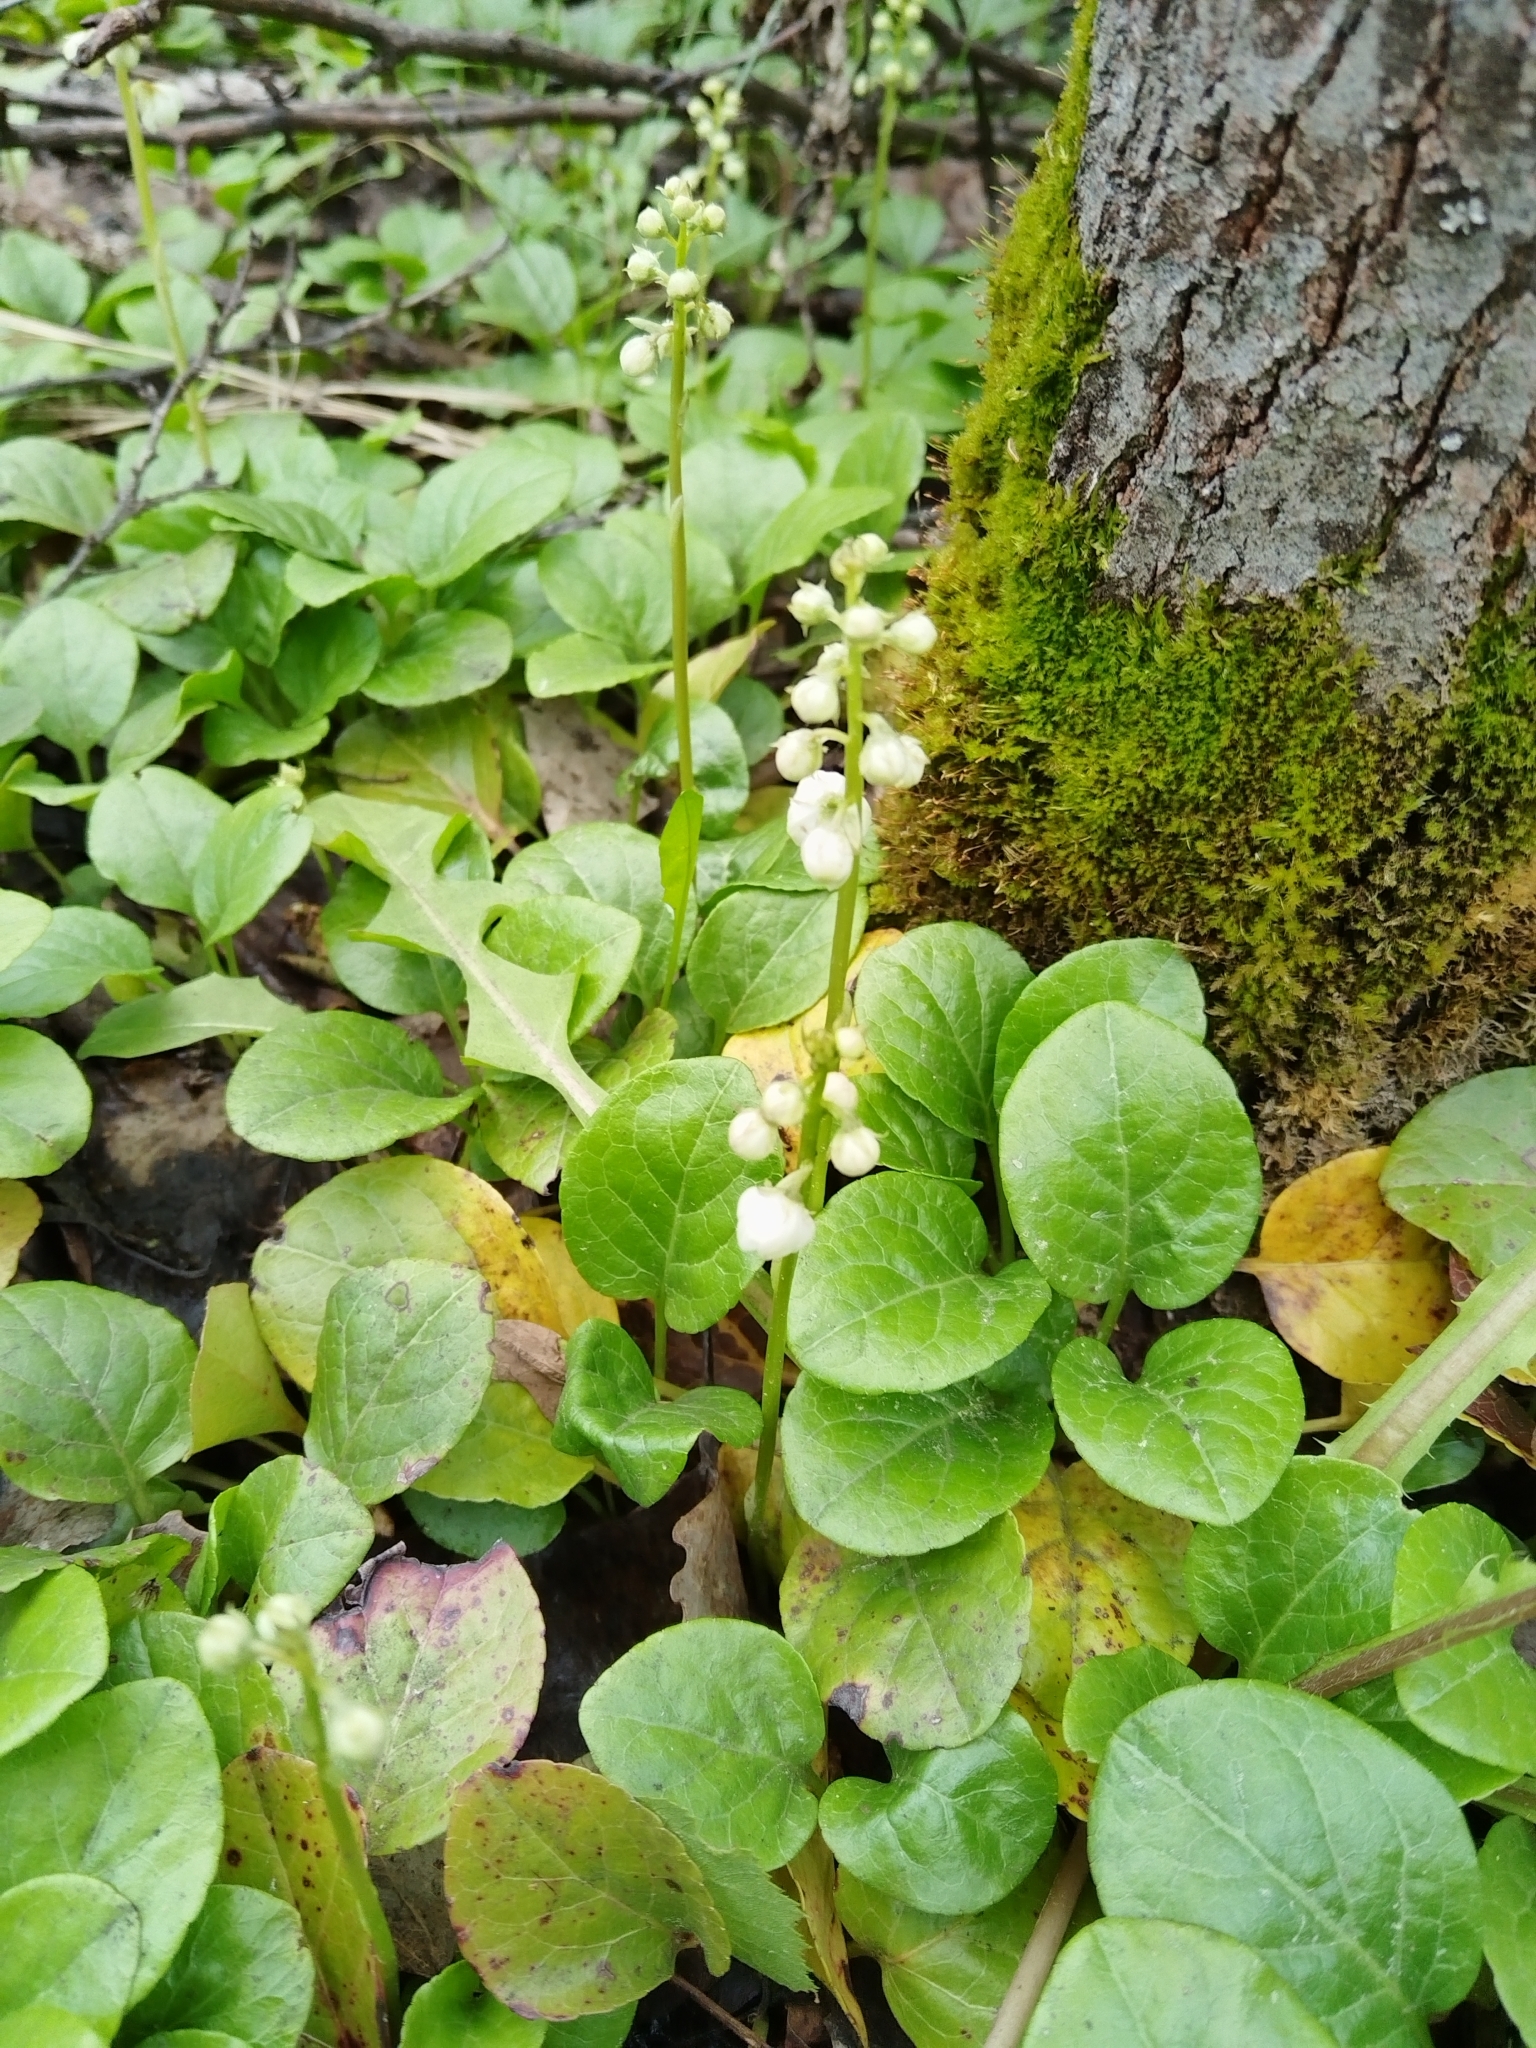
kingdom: Plantae
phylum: Tracheophyta
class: Magnoliopsida
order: Ericales
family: Ericaceae
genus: Pyrola
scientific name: Pyrola rotundifolia
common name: Round-leaved wintergreen
